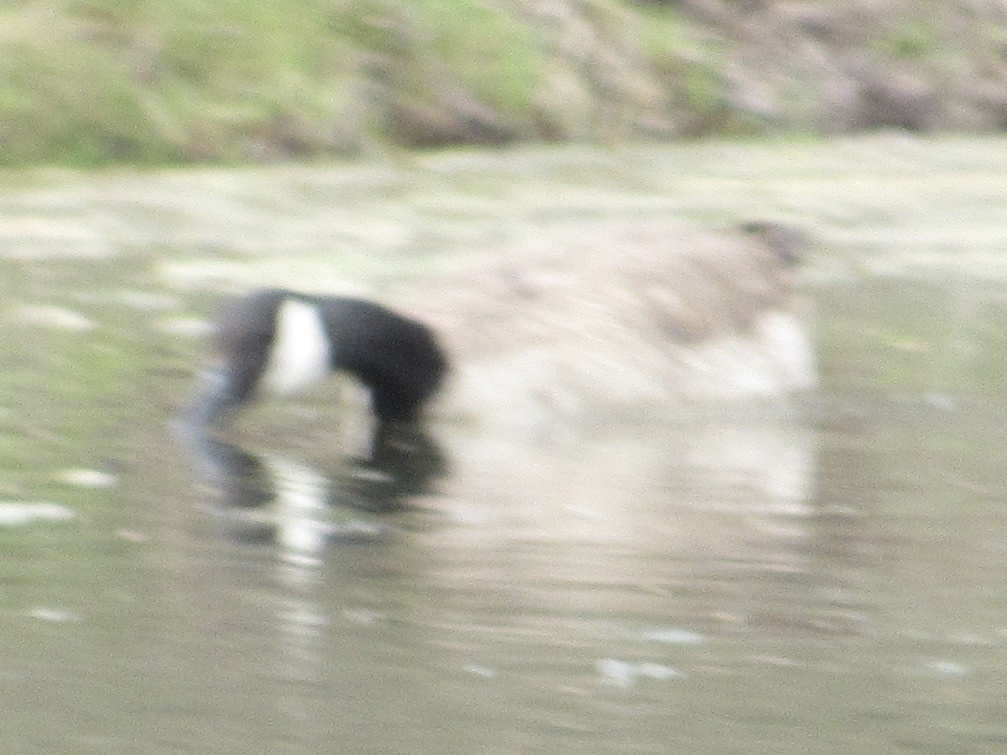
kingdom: Animalia
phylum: Chordata
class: Aves
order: Anseriformes
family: Anatidae
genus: Branta
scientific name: Branta canadensis
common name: Canada goose
